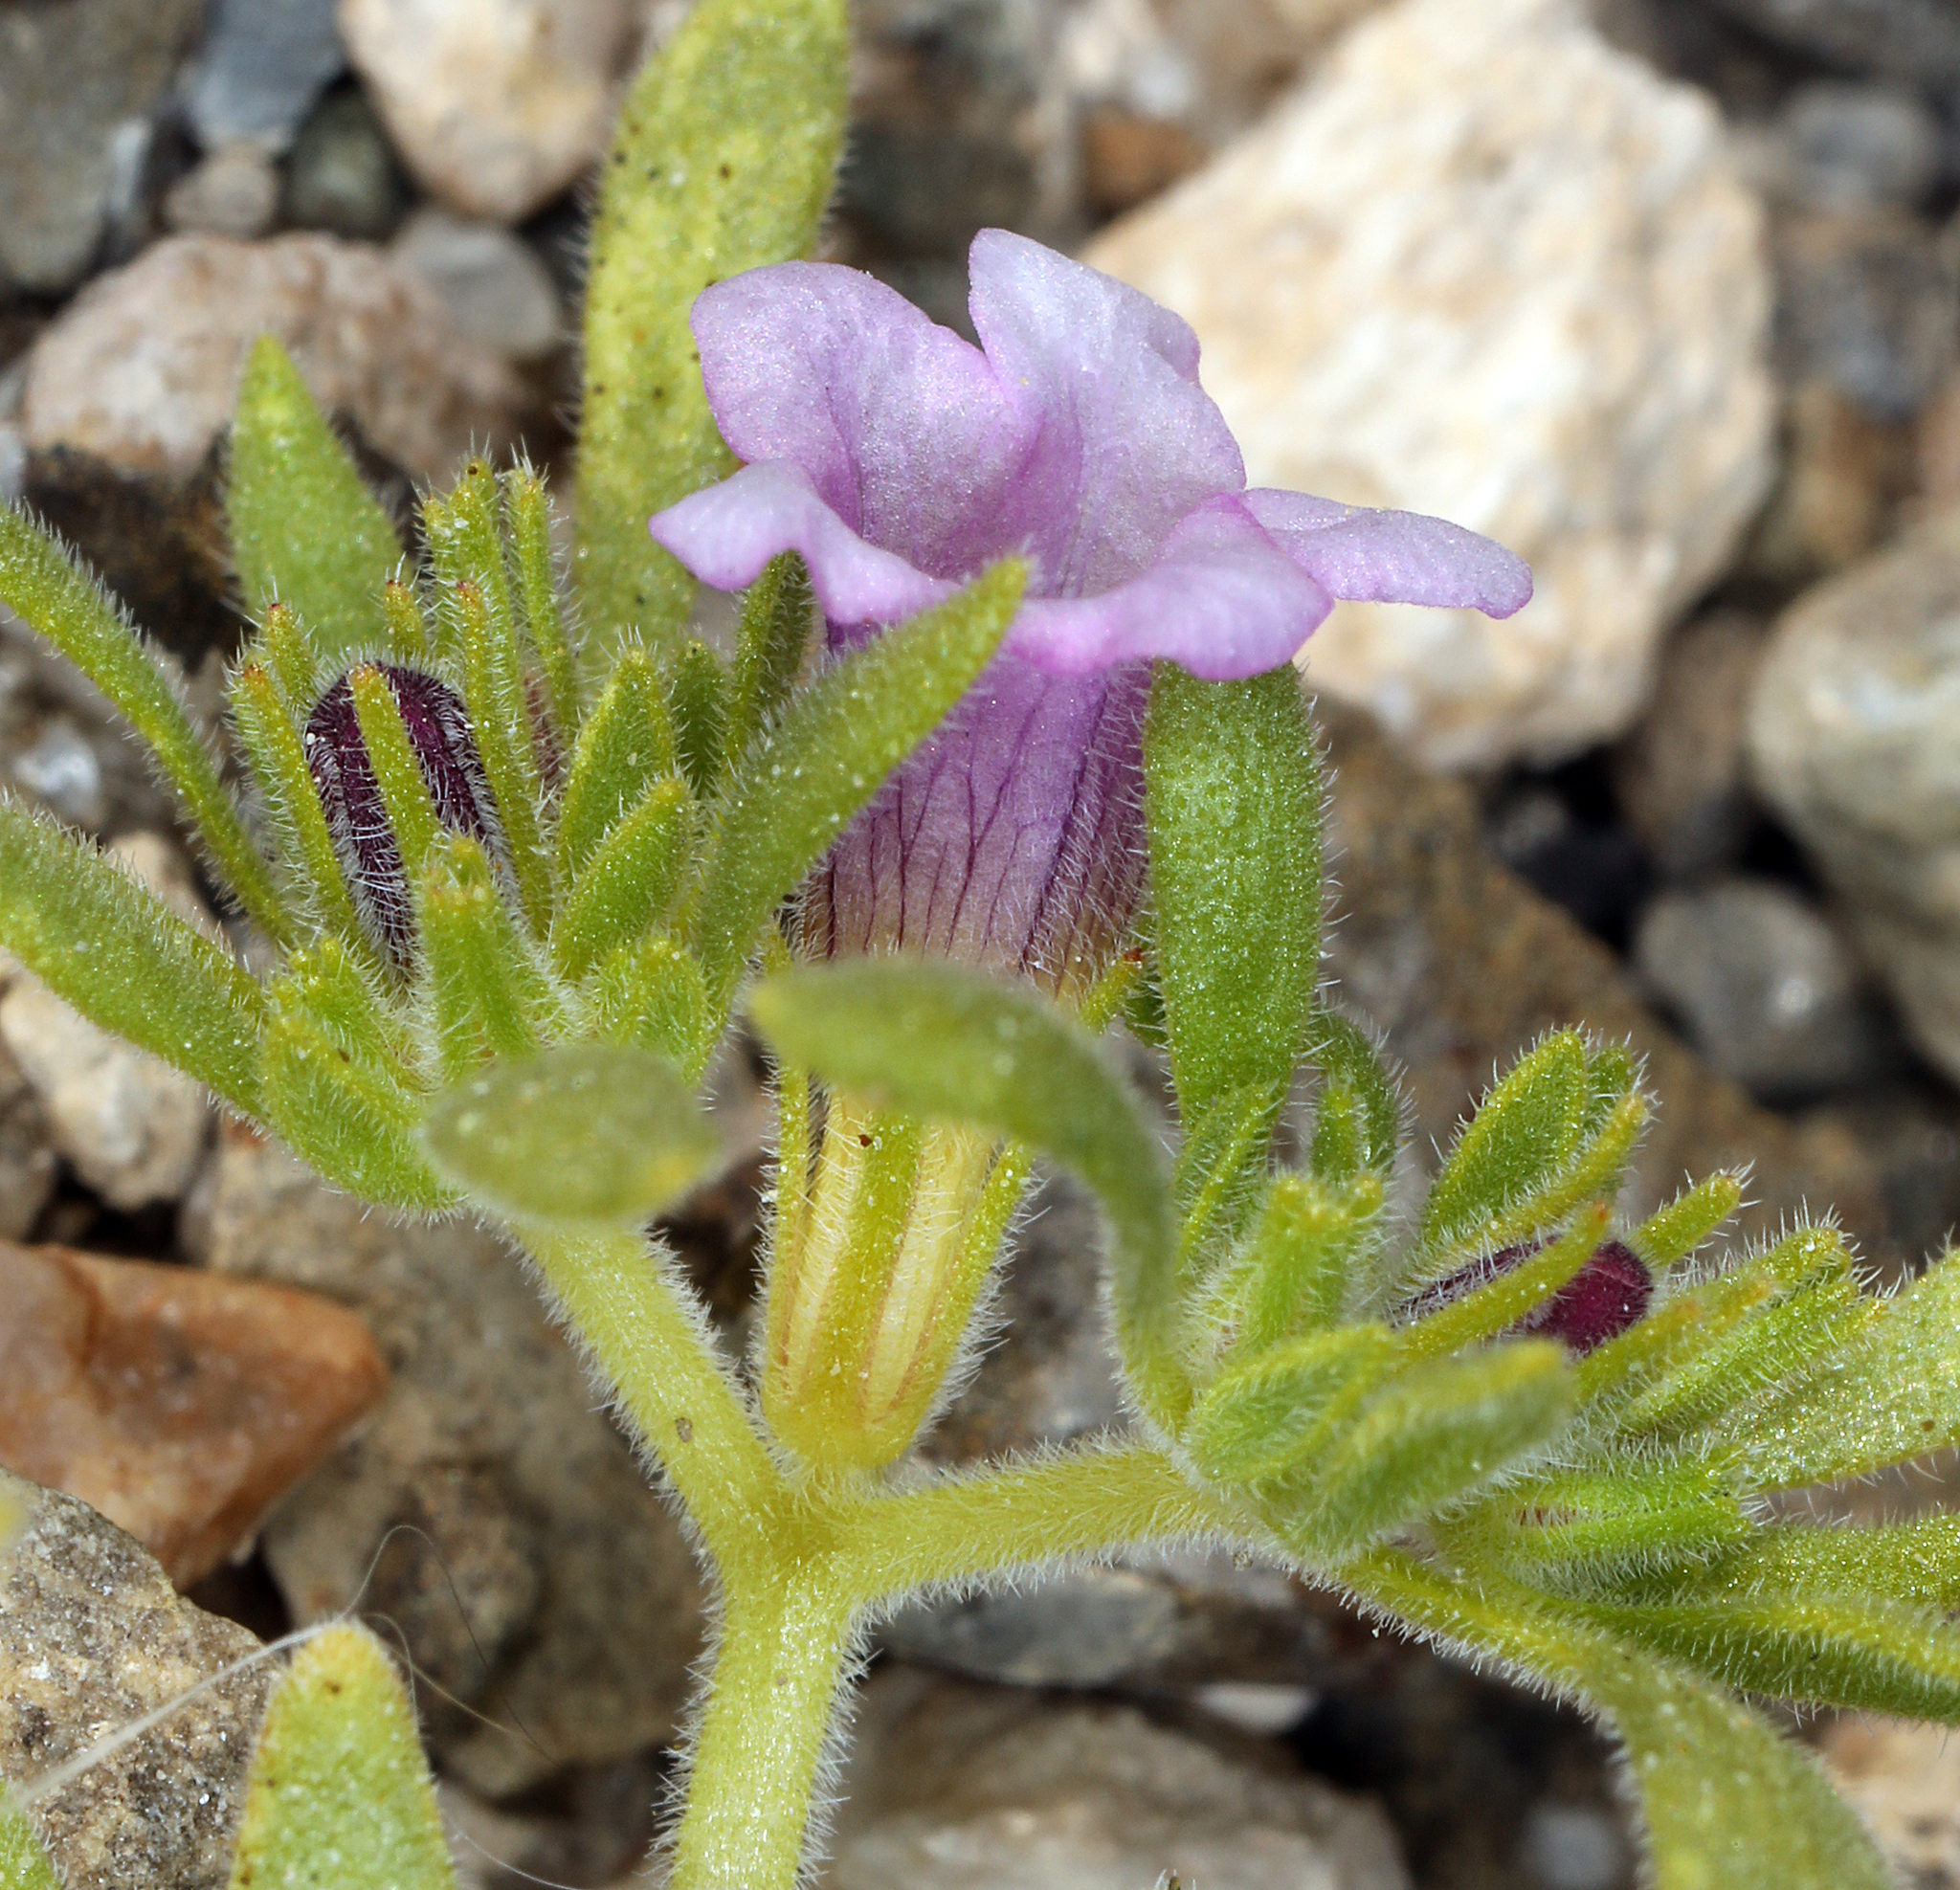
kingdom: Plantae
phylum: Tracheophyta
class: Magnoliopsida
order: Boraginales
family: Namaceae
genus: Nama
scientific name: Nama demissa
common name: Leafy nama
